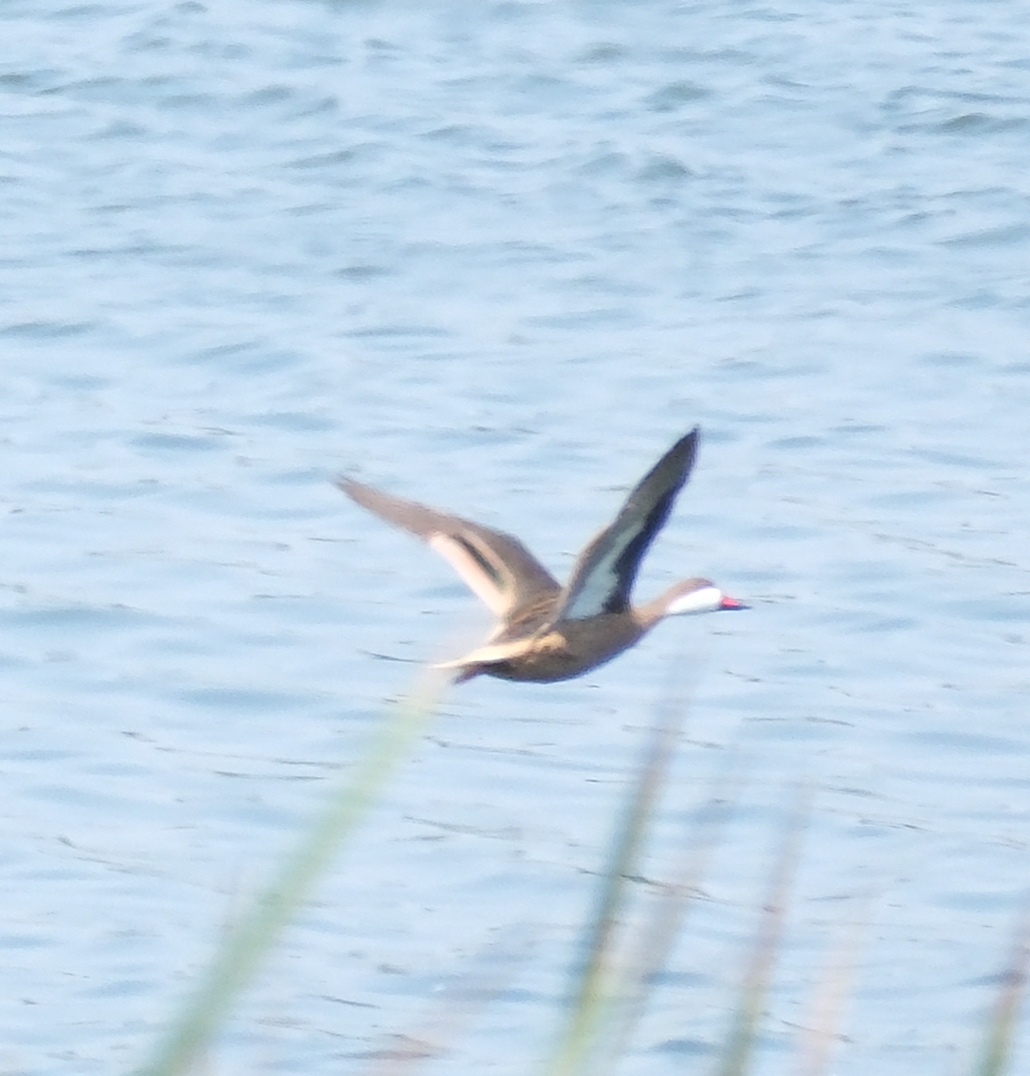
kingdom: Animalia
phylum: Chordata
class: Aves
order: Anseriformes
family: Anatidae
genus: Anas
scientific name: Anas bahamensis
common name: White-cheeked pintail
